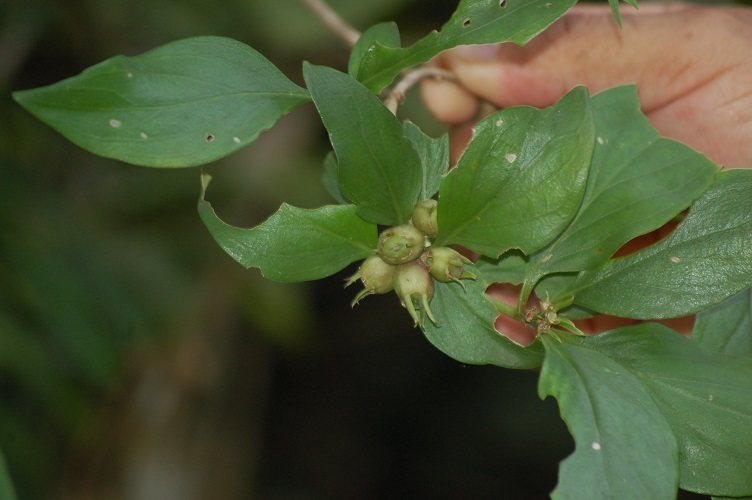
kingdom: Plantae
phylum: Tracheophyta
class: Magnoliopsida
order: Gentianales
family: Rubiaceae
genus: Bouvardia
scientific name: Bouvardia dictyoneura
